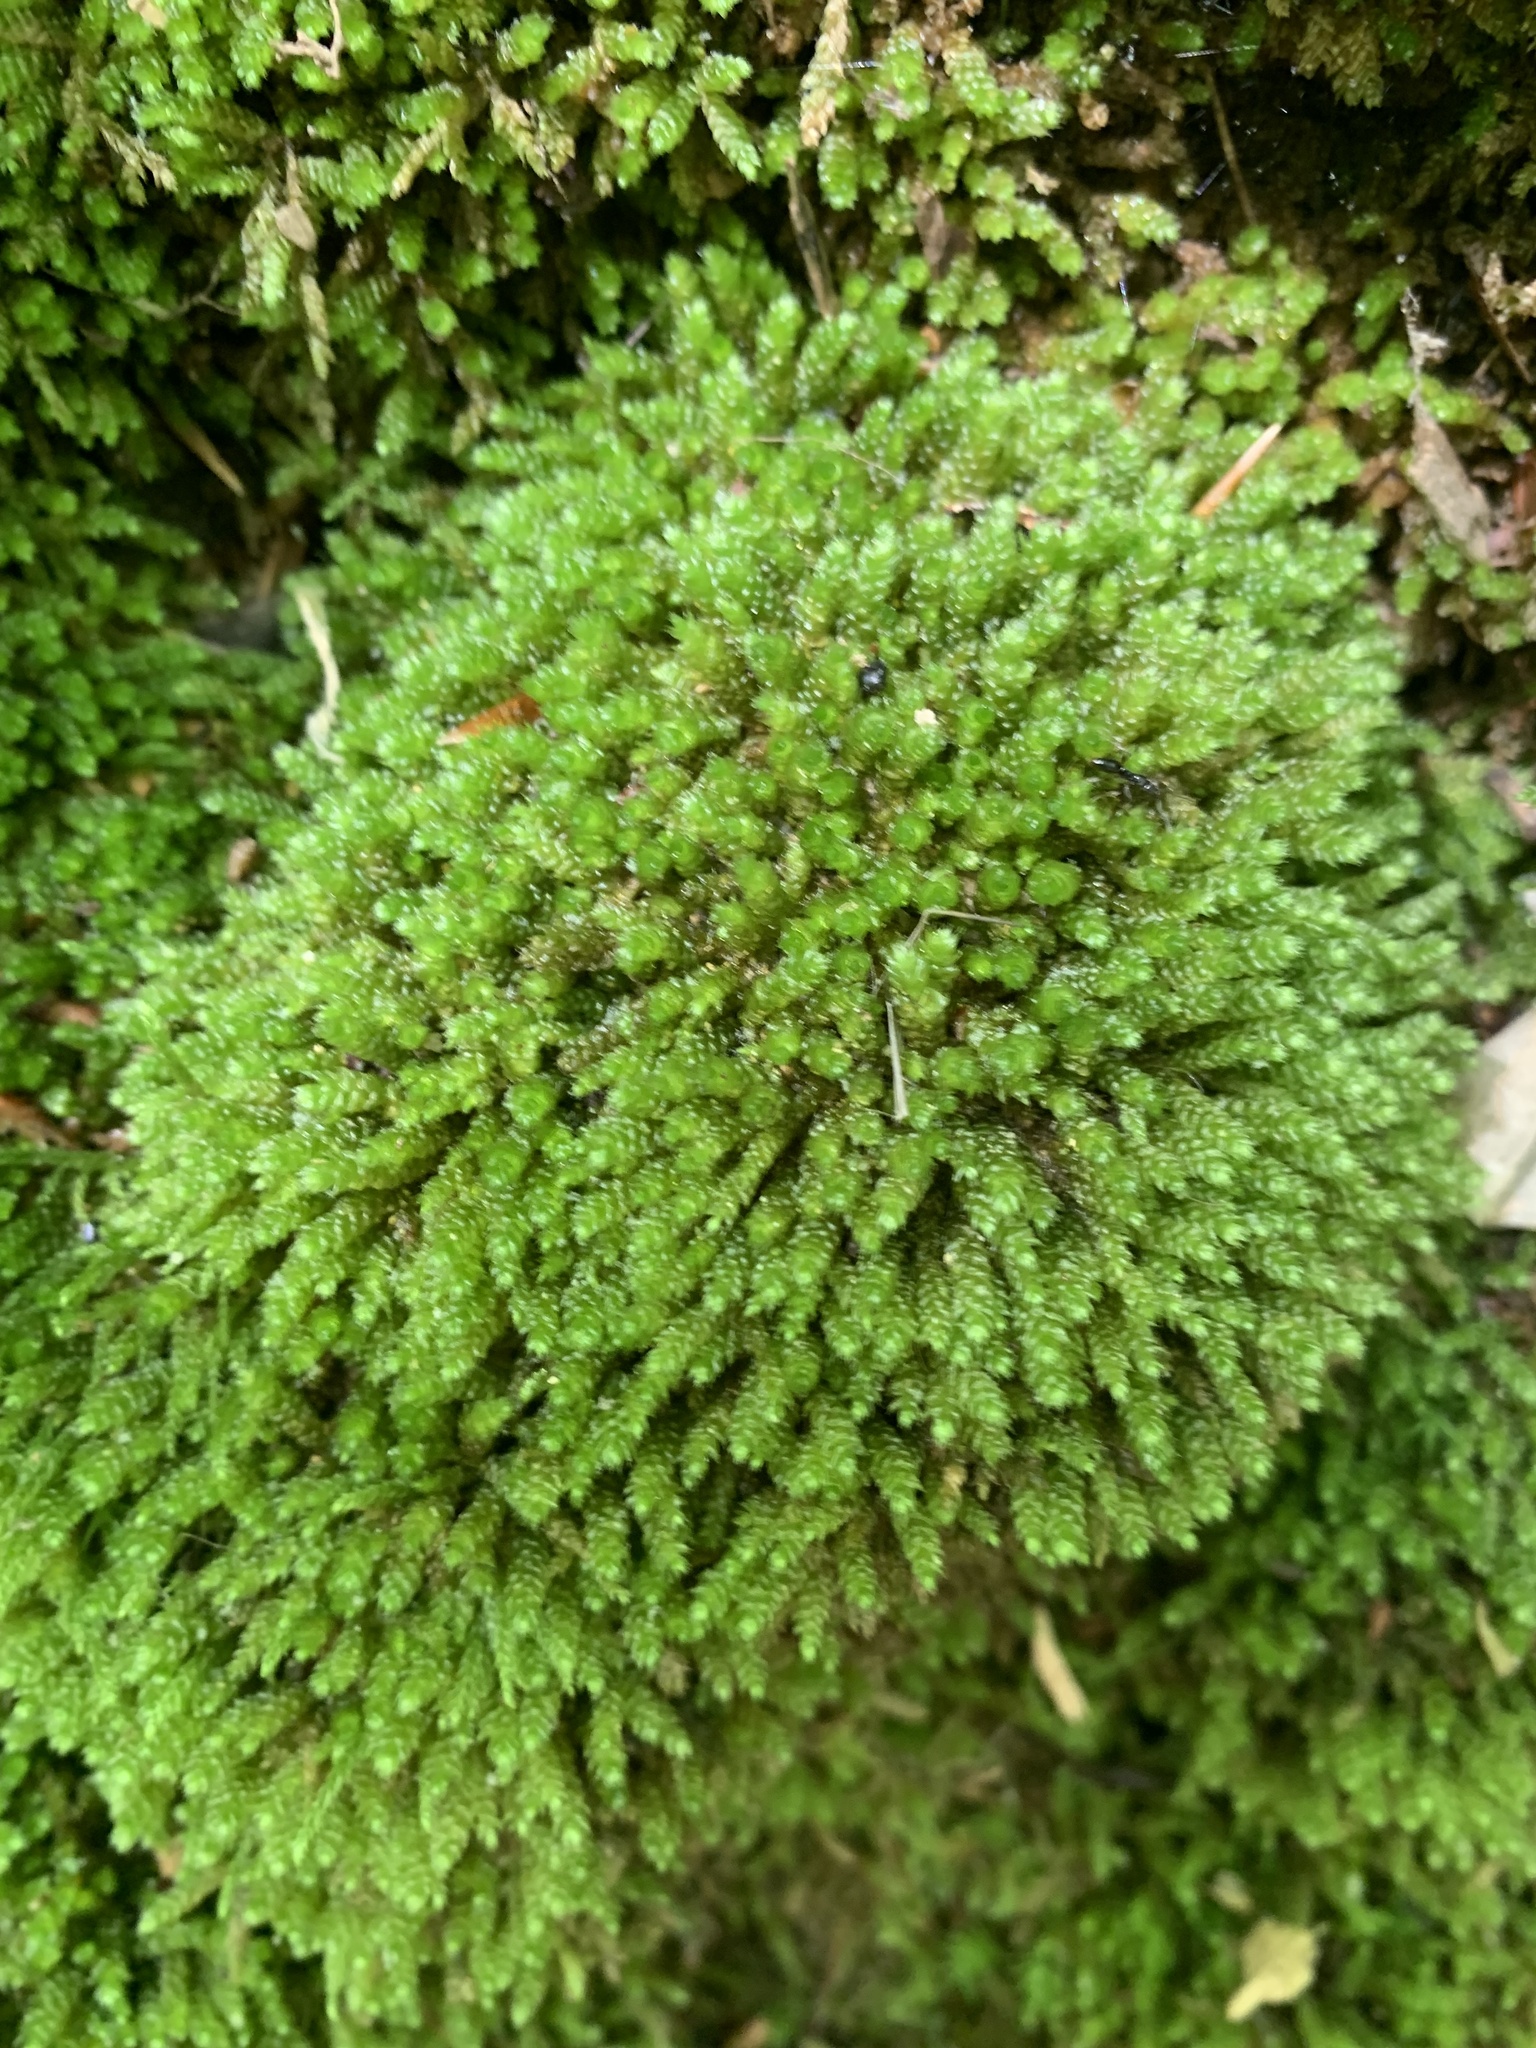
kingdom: Plantae
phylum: Bryophyta
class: Bryopsida
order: Hypnales
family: Brachytheciaceae
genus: Bryoandersonia
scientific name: Bryoandersonia illecebra
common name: Spoon-leaved moss
